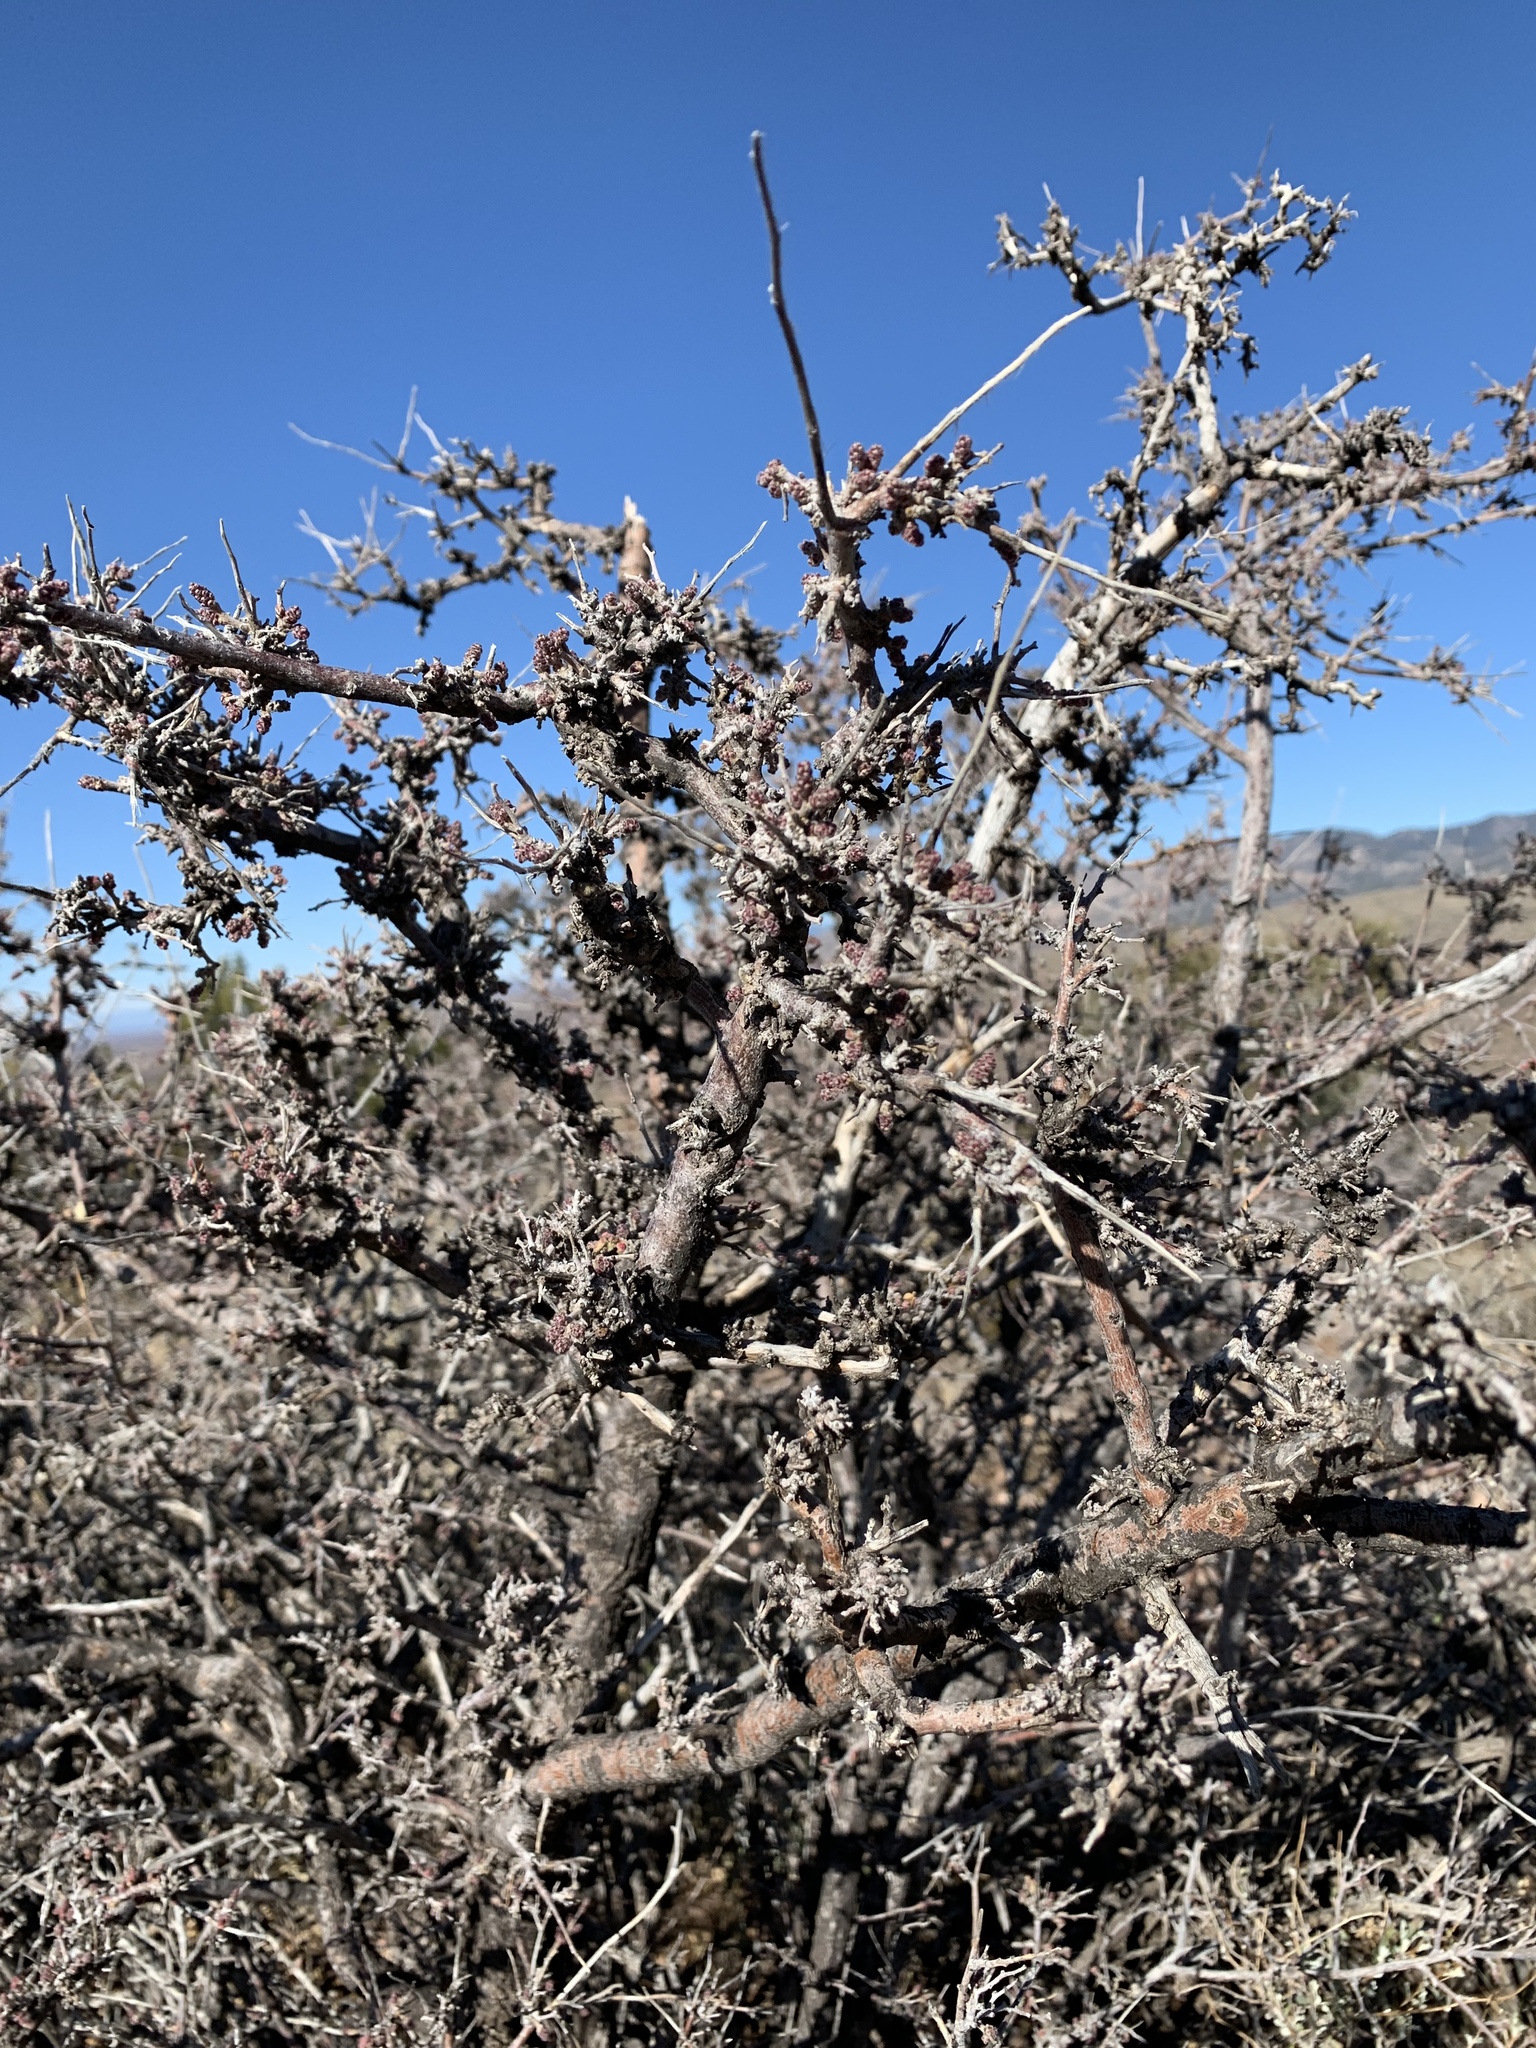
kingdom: Plantae
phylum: Tracheophyta
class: Magnoliopsida
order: Sapindales
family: Anacardiaceae
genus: Rhus
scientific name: Rhus microphylla
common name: Desert sumac
